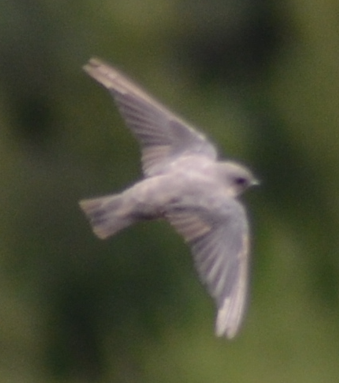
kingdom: Animalia
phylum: Chordata
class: Aves
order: Passeriformes
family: Hirundinidae
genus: Ptyonoprogne
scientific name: Ptyonoprogne rupestris
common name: Eurasian crag martin
